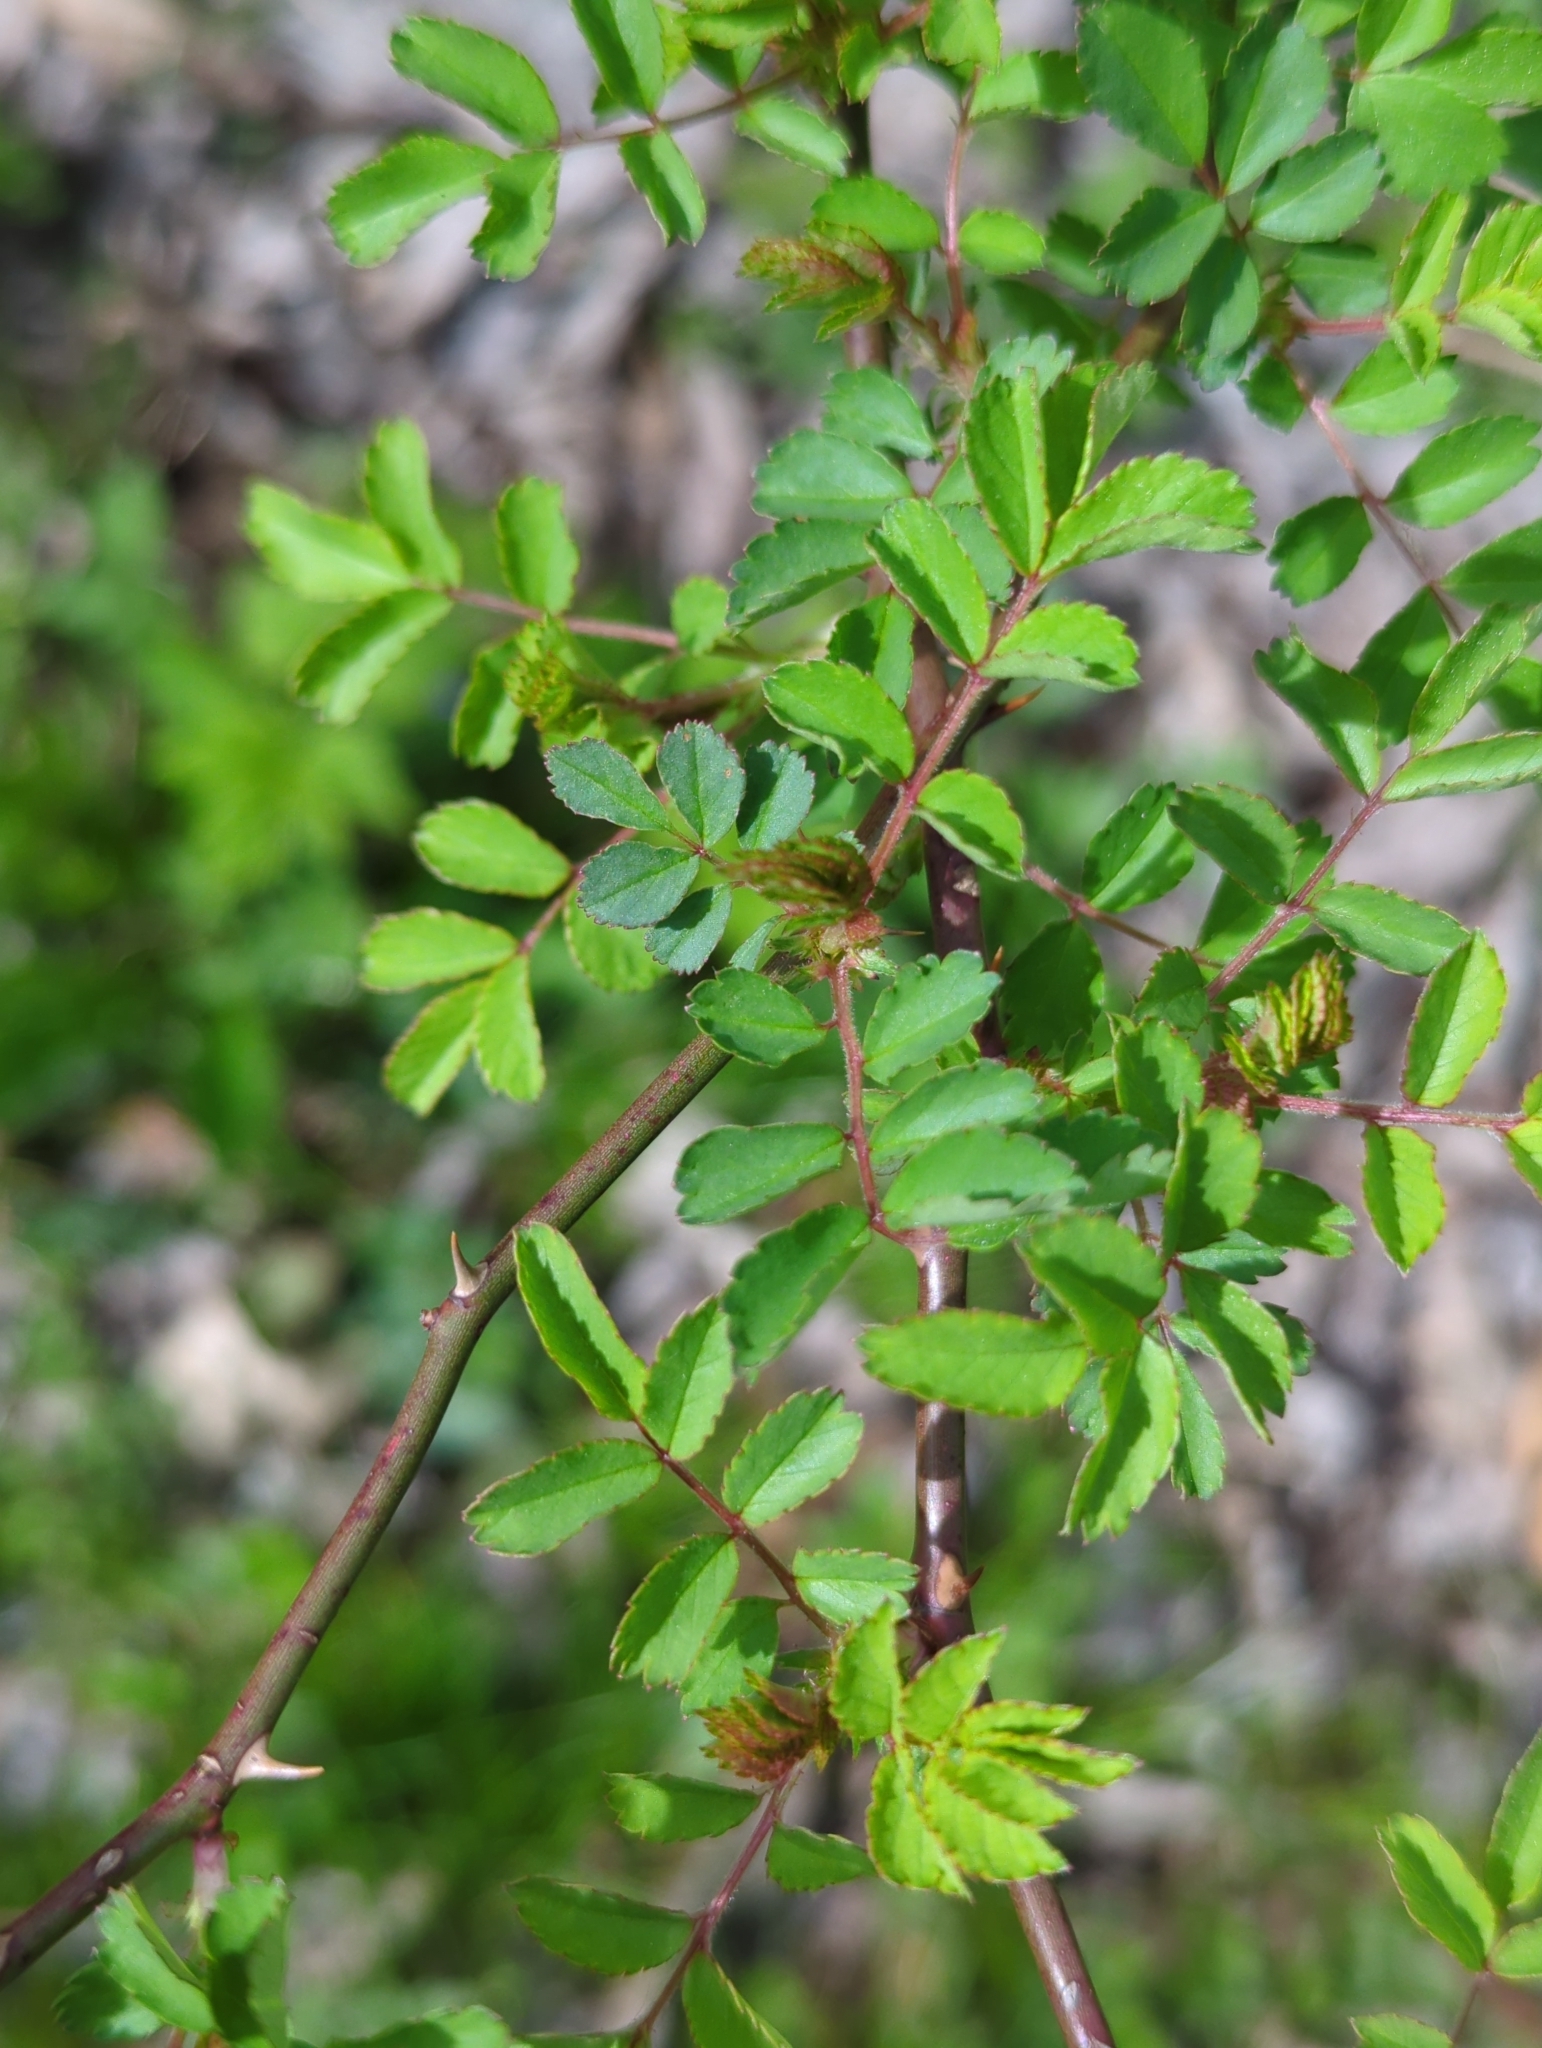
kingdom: Plantae
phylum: Tracheophyta
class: Magnoliopsida
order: Rosales
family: Rosaceae
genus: Rosa
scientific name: Rosa multiflora
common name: Multiflora rose
